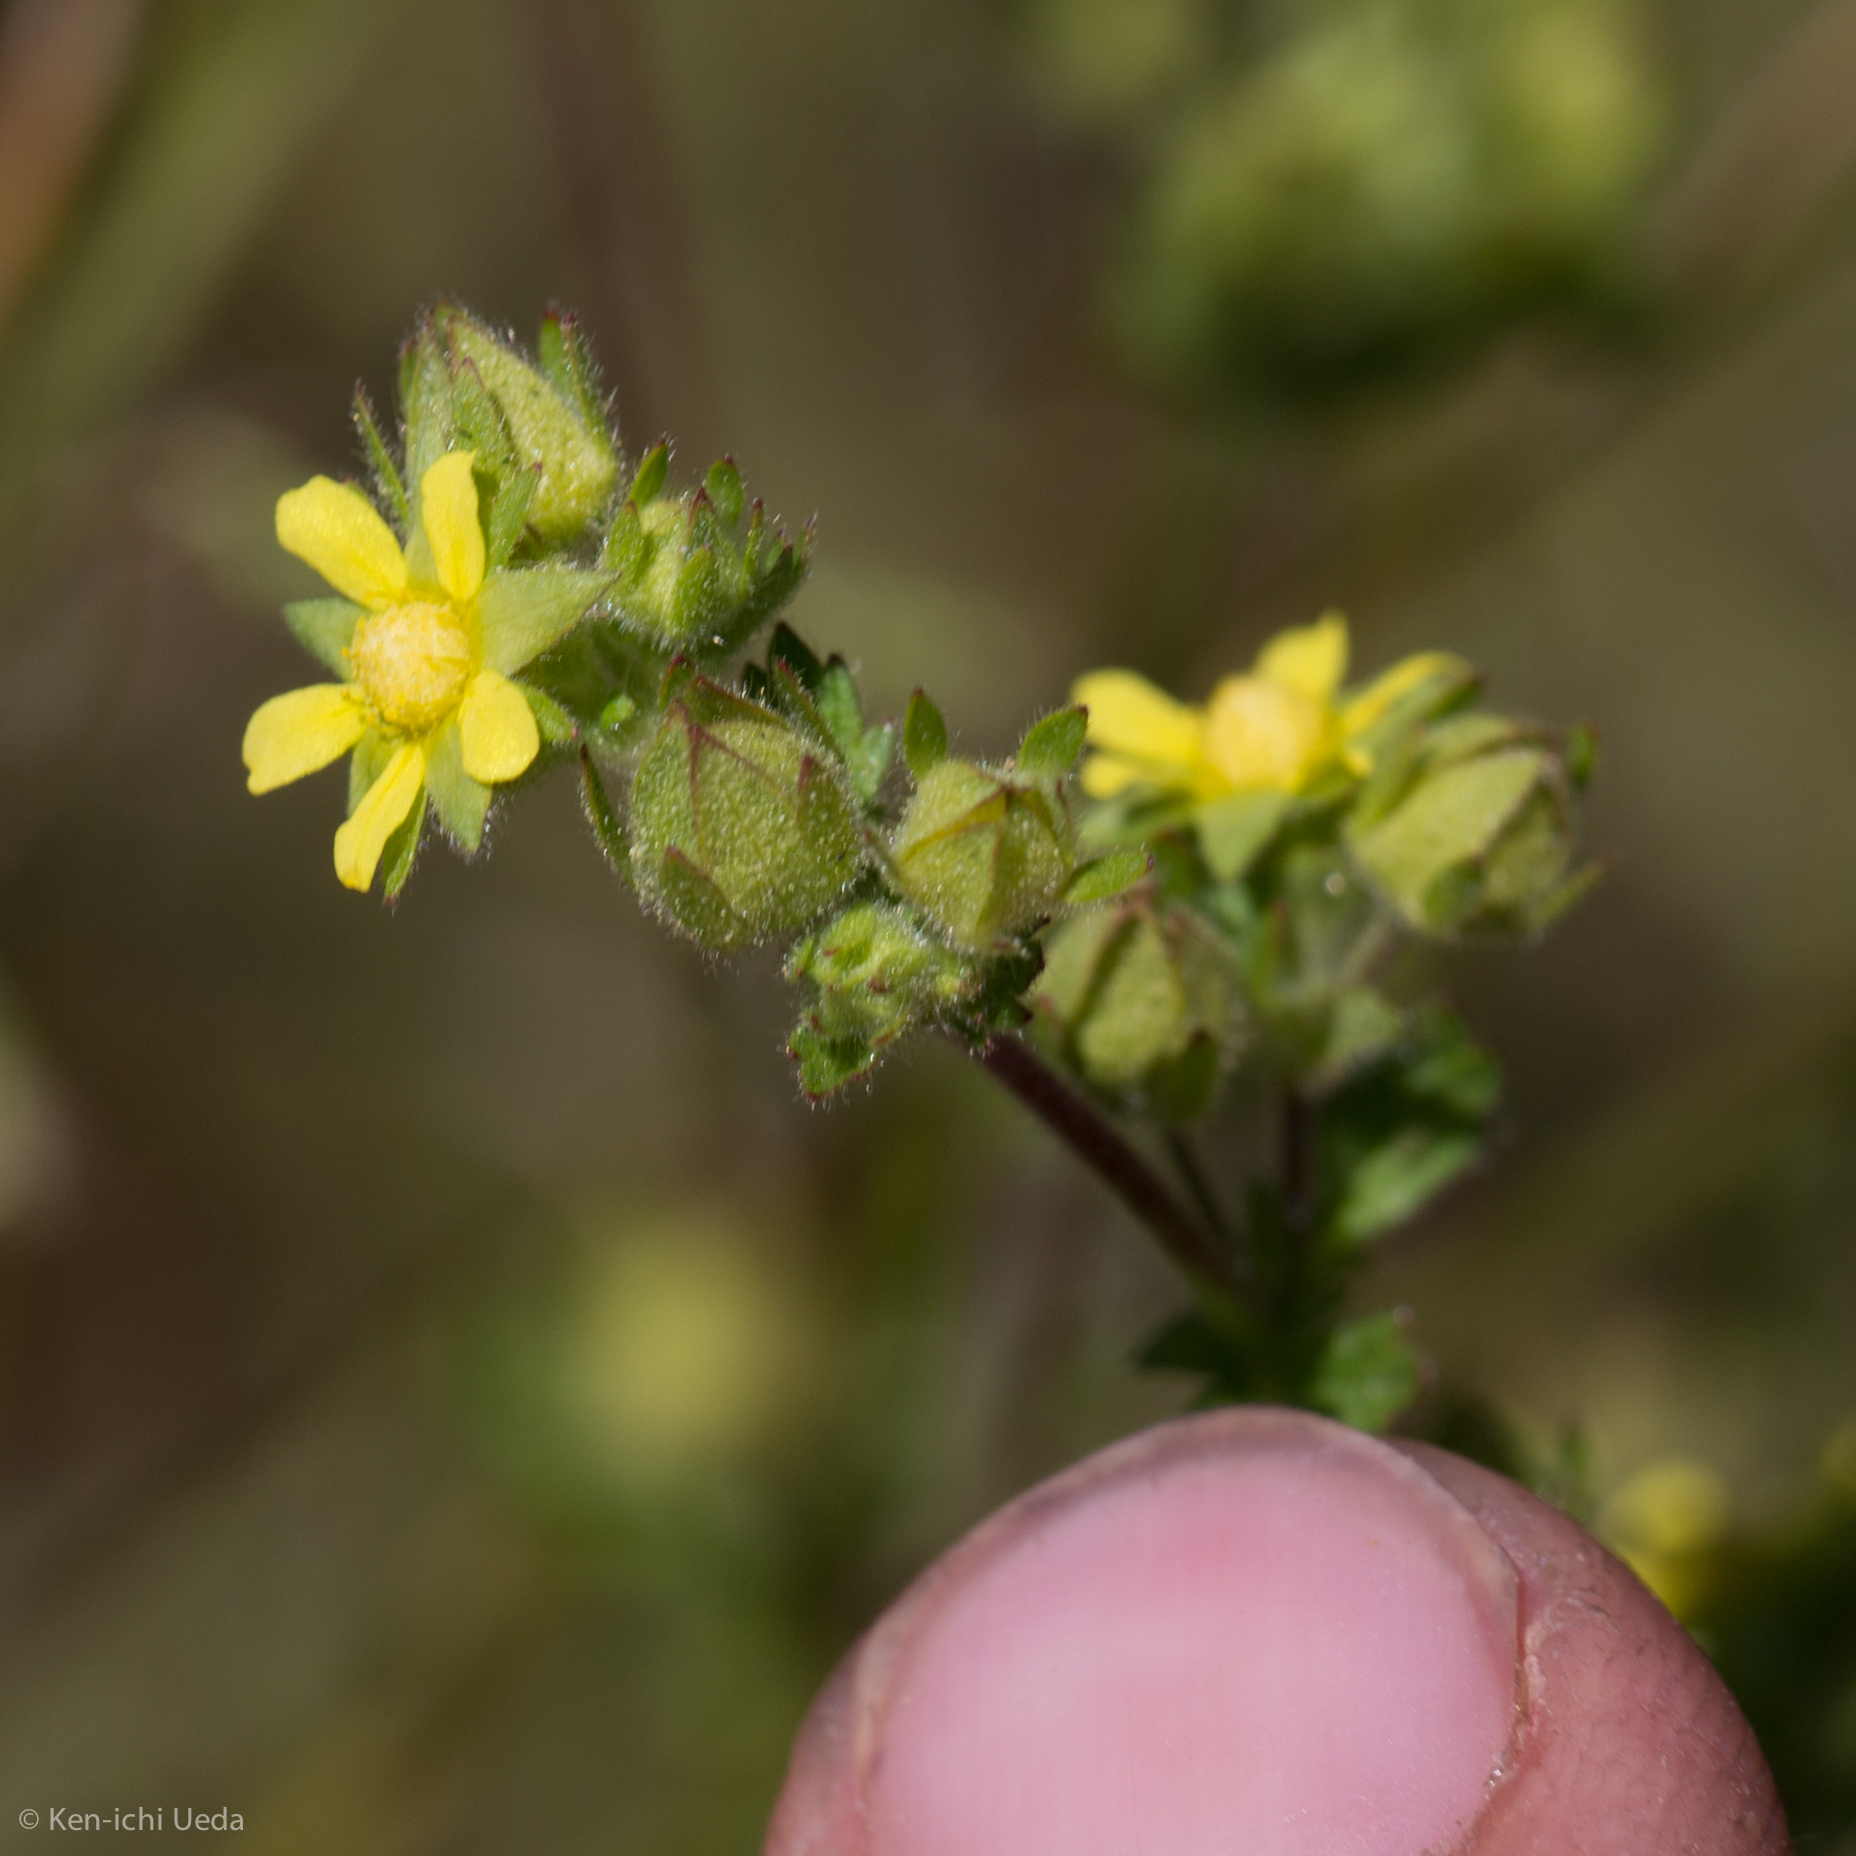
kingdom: Plantae
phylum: Tracheophyta
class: Magnoliopsida
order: Rosales
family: Rosaceae
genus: Potentilla
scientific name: Potentilla biennis
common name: Greene's cinquefoil
